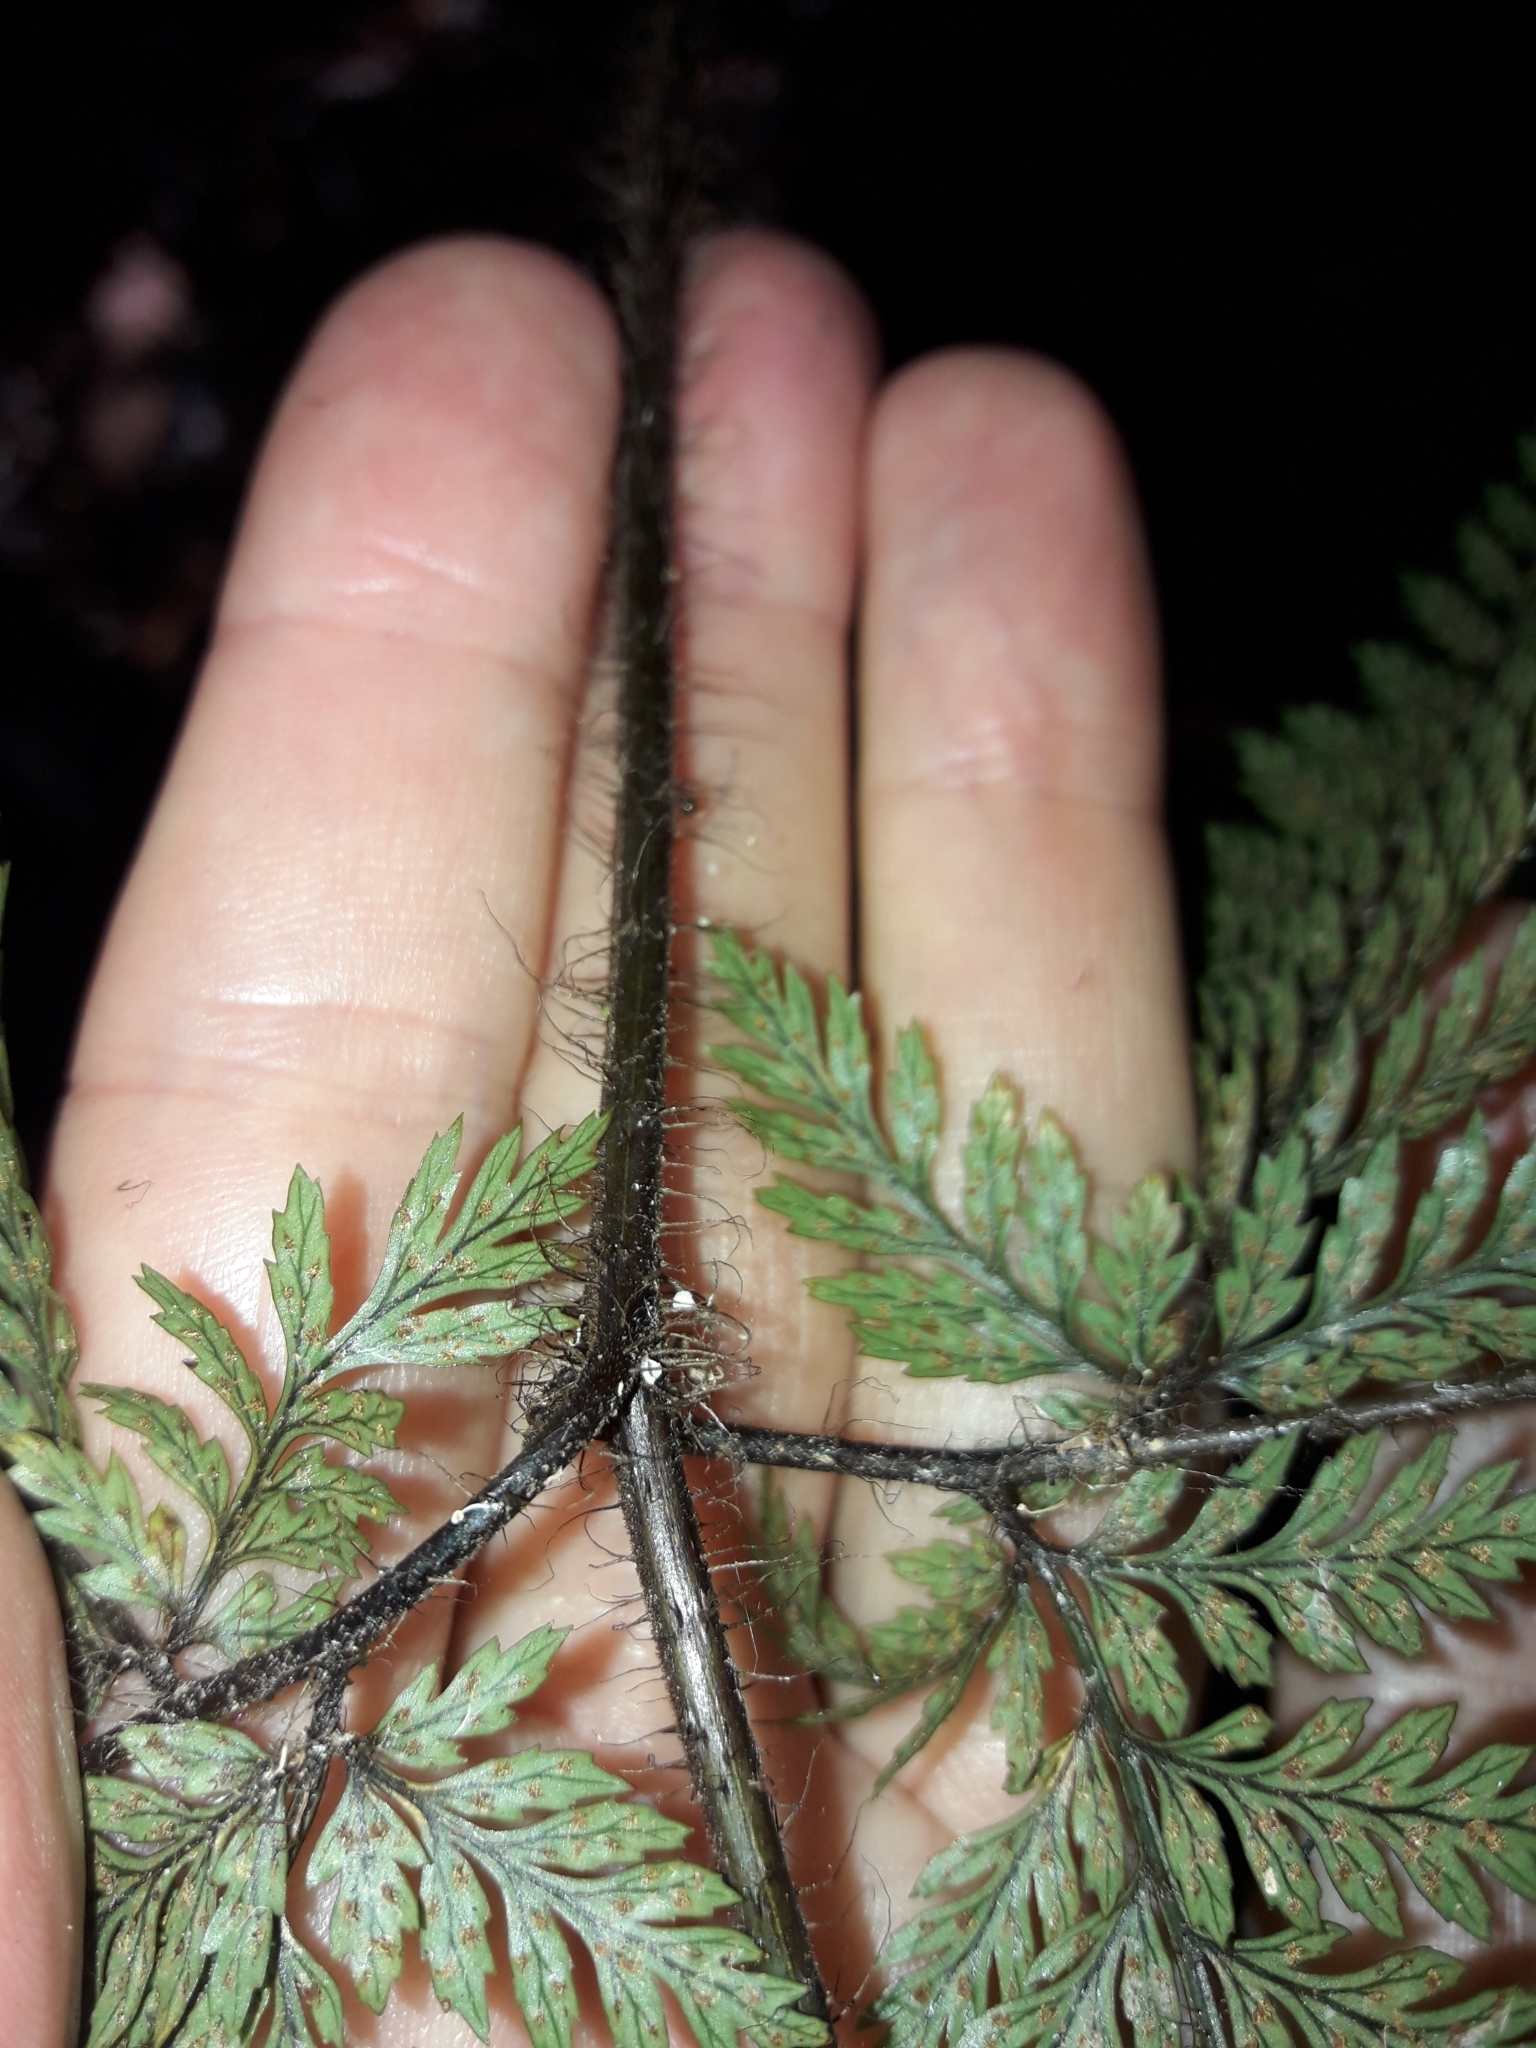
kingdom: Plantae
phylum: Tracheophyta
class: Polypodiopsida
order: Polypodiales
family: Dryopteridaceae
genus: Lastreopsis
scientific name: Lastreopsis hispida
